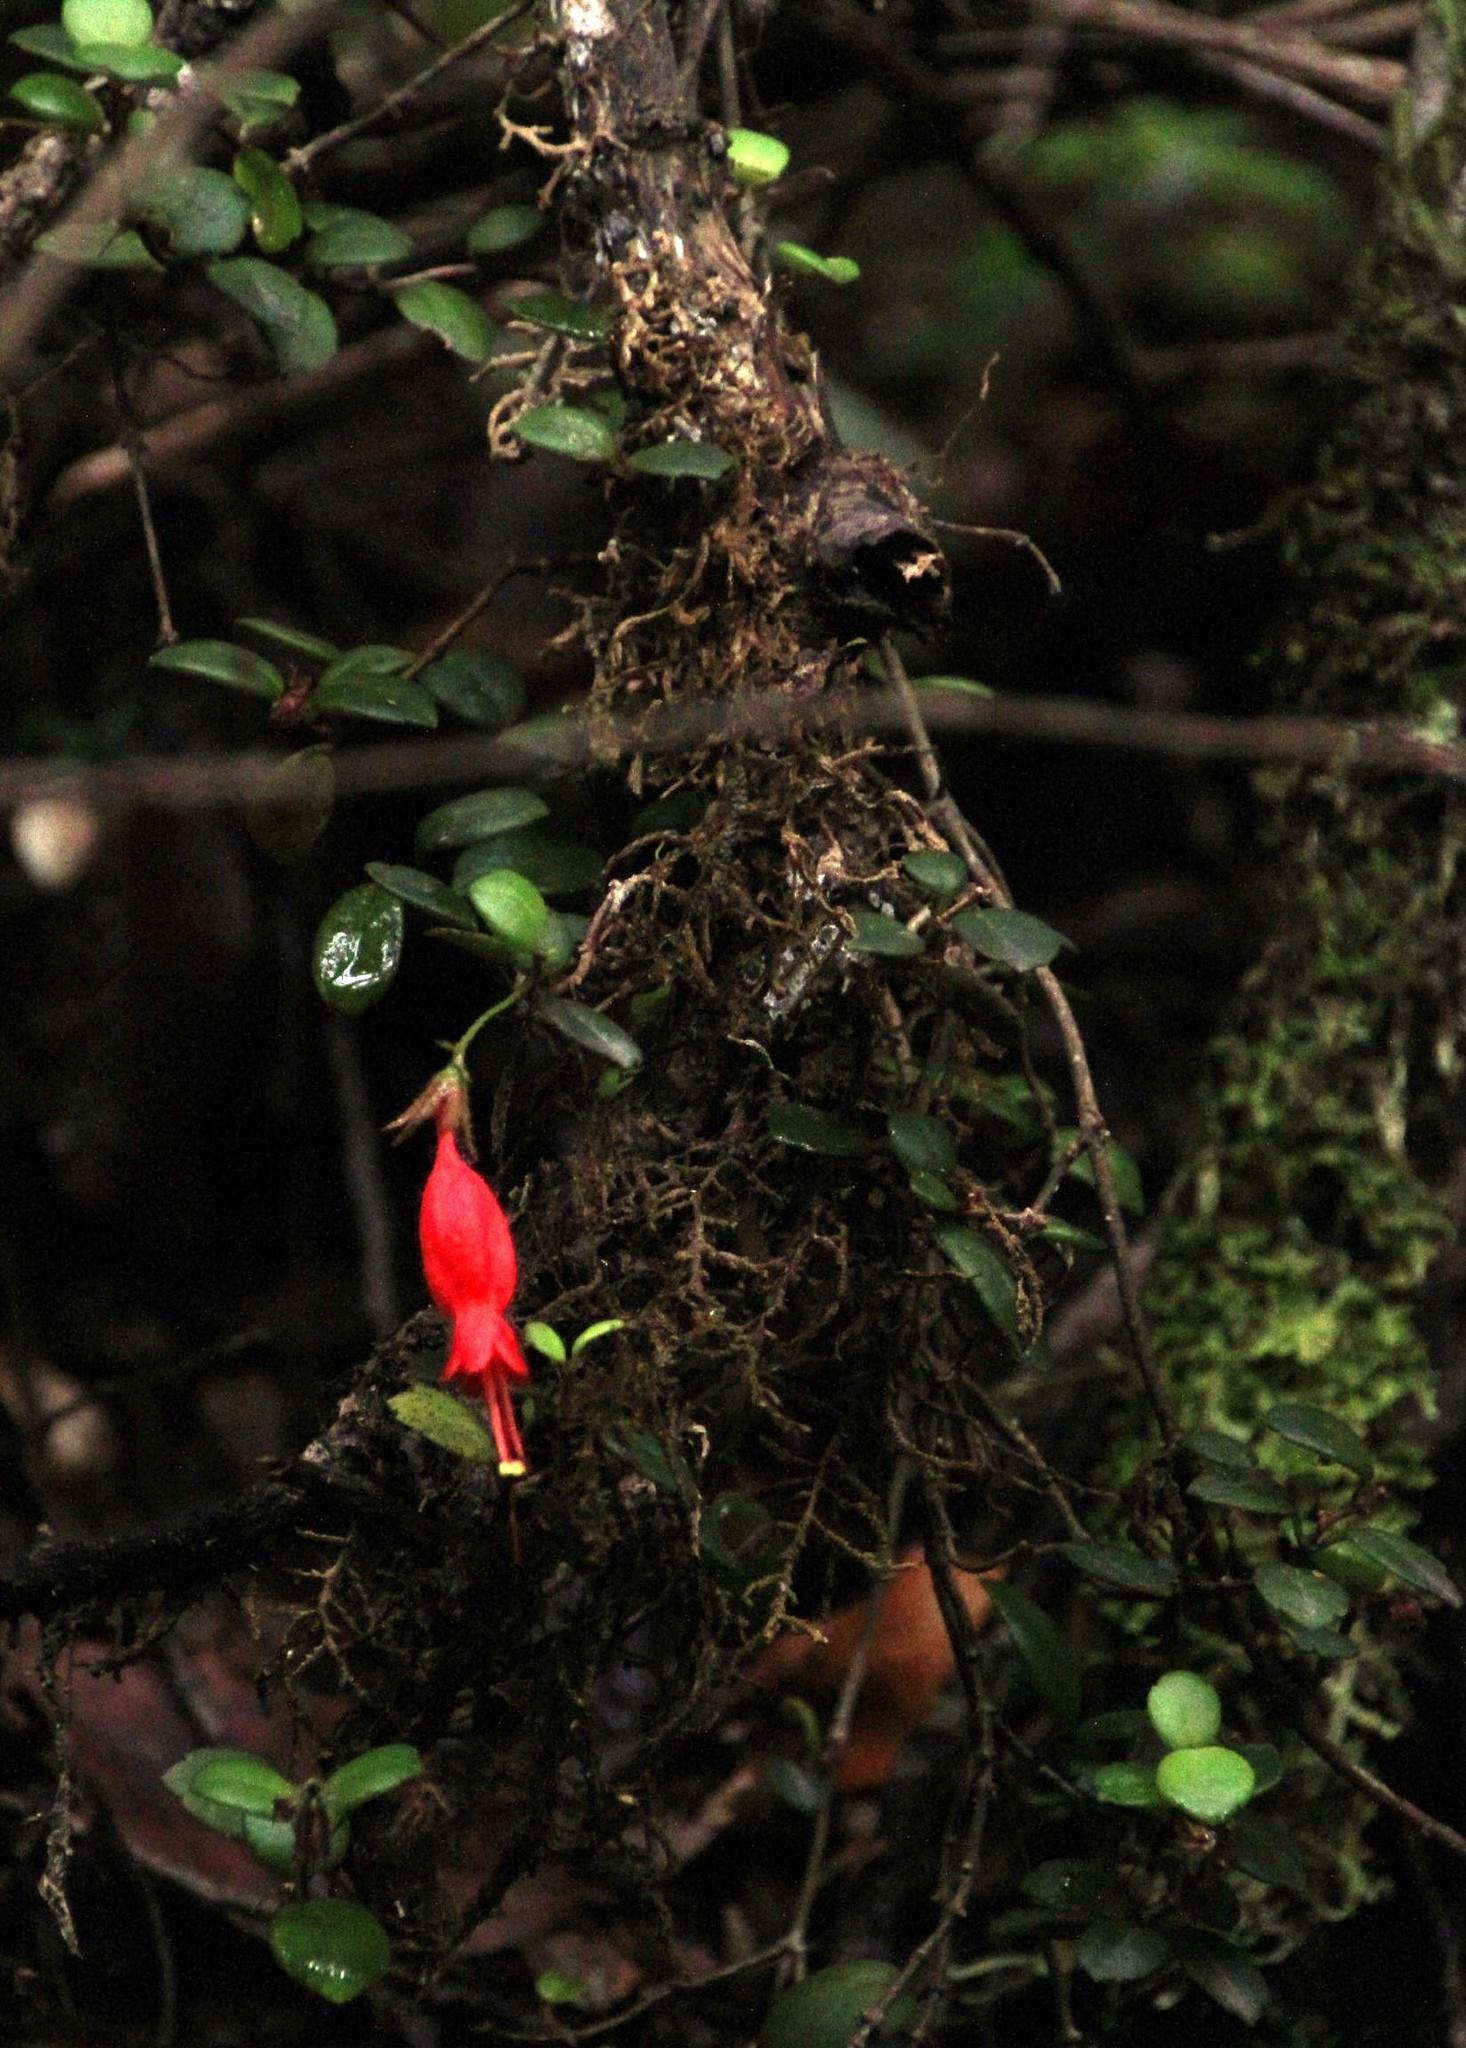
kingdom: Plantae
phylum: Tracheophyta
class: Magnoliopsida
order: Lamiales
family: Gesneriaceae
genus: Sarmienta
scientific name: Sarmienta scandens
